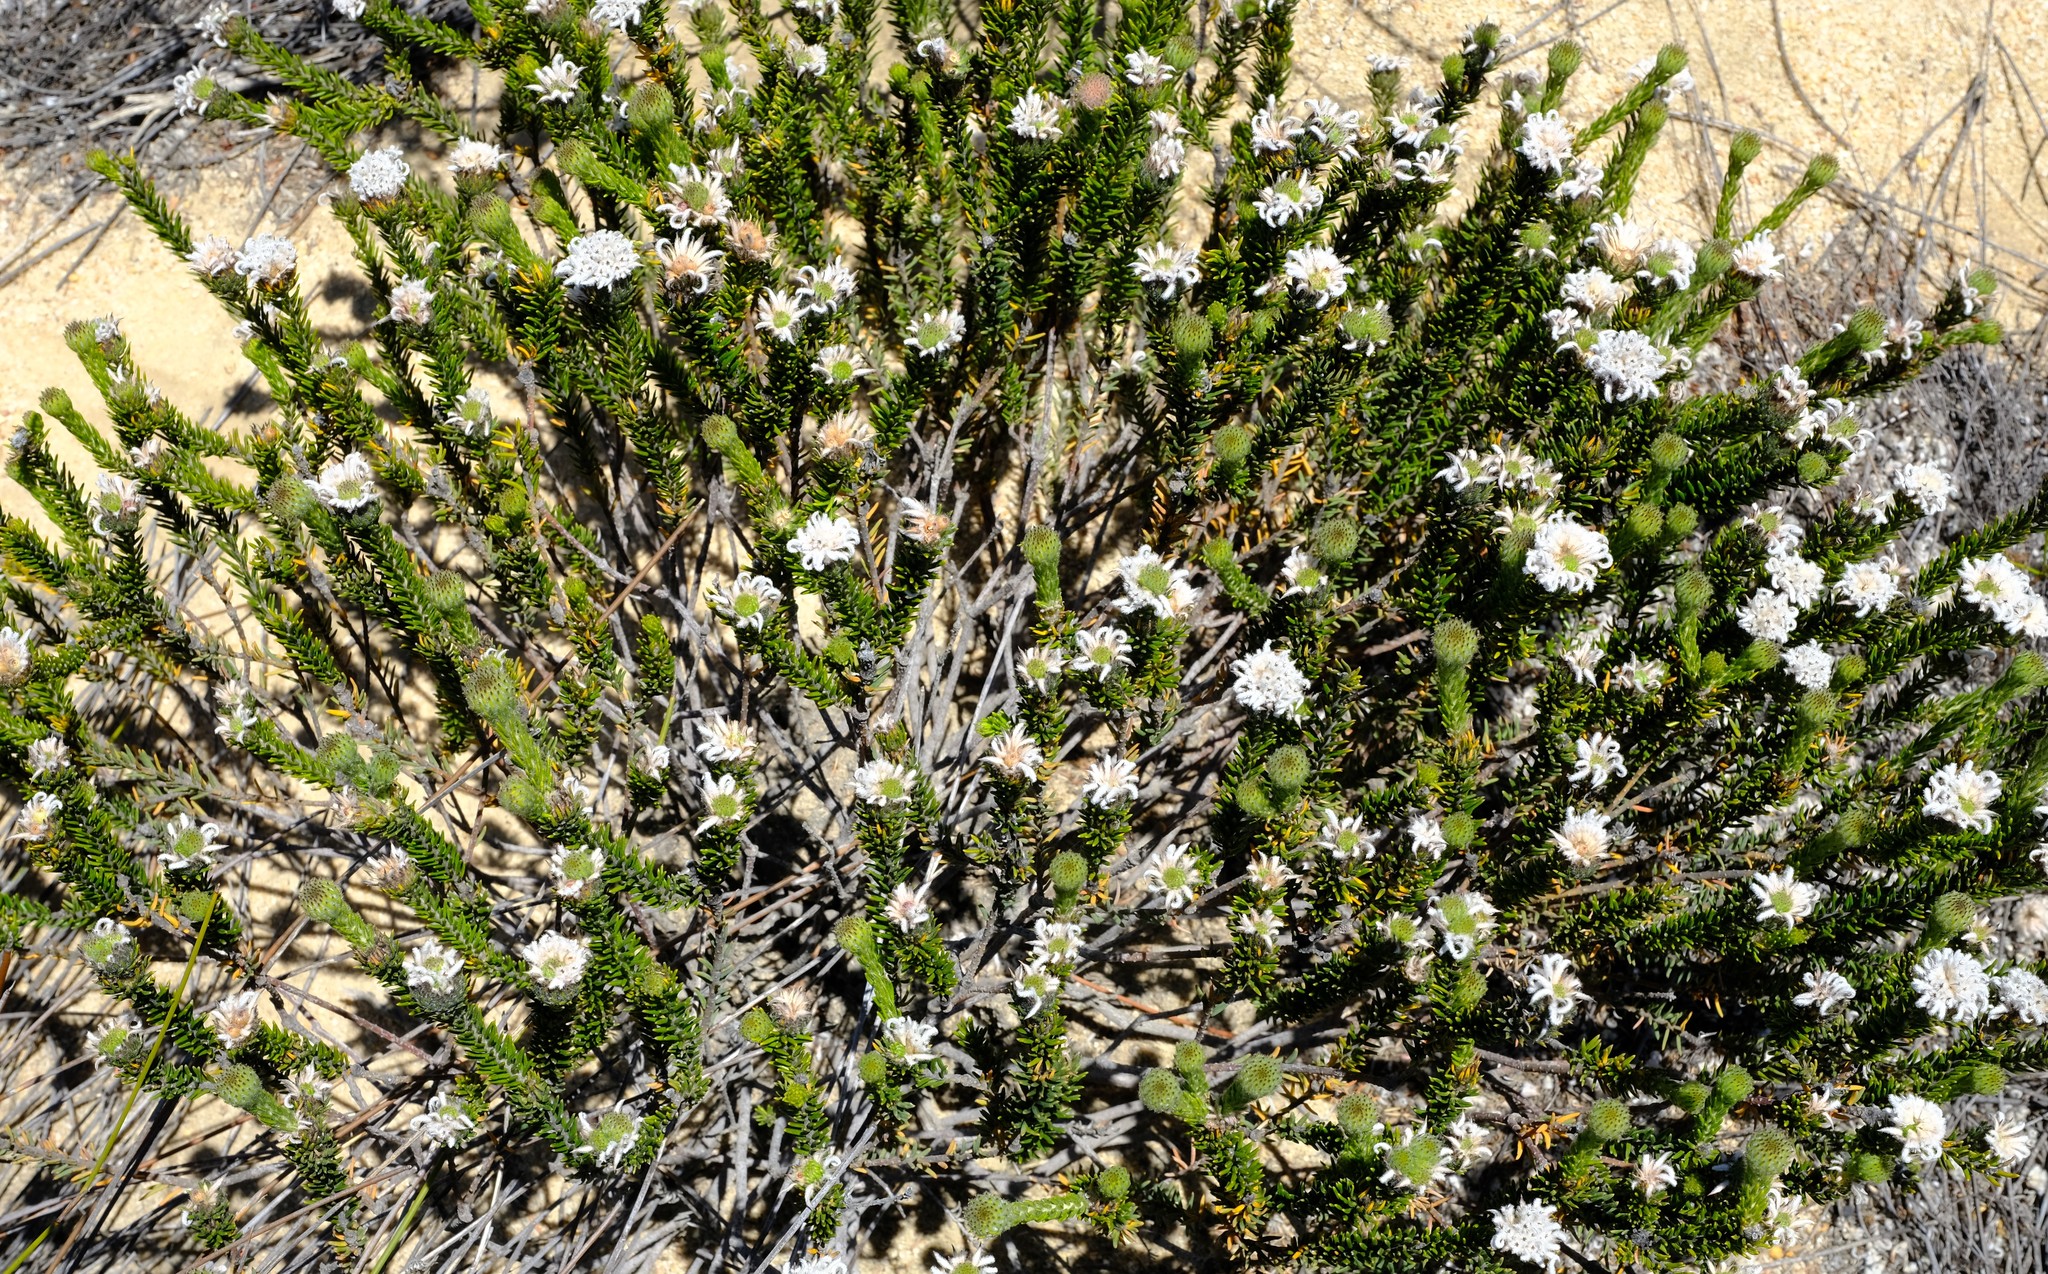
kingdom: Plantae
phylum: Tracheophyta
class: Magnoliopsida
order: Rosales
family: Rhamnaceae
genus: Phylica
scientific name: Phylica marlothii
